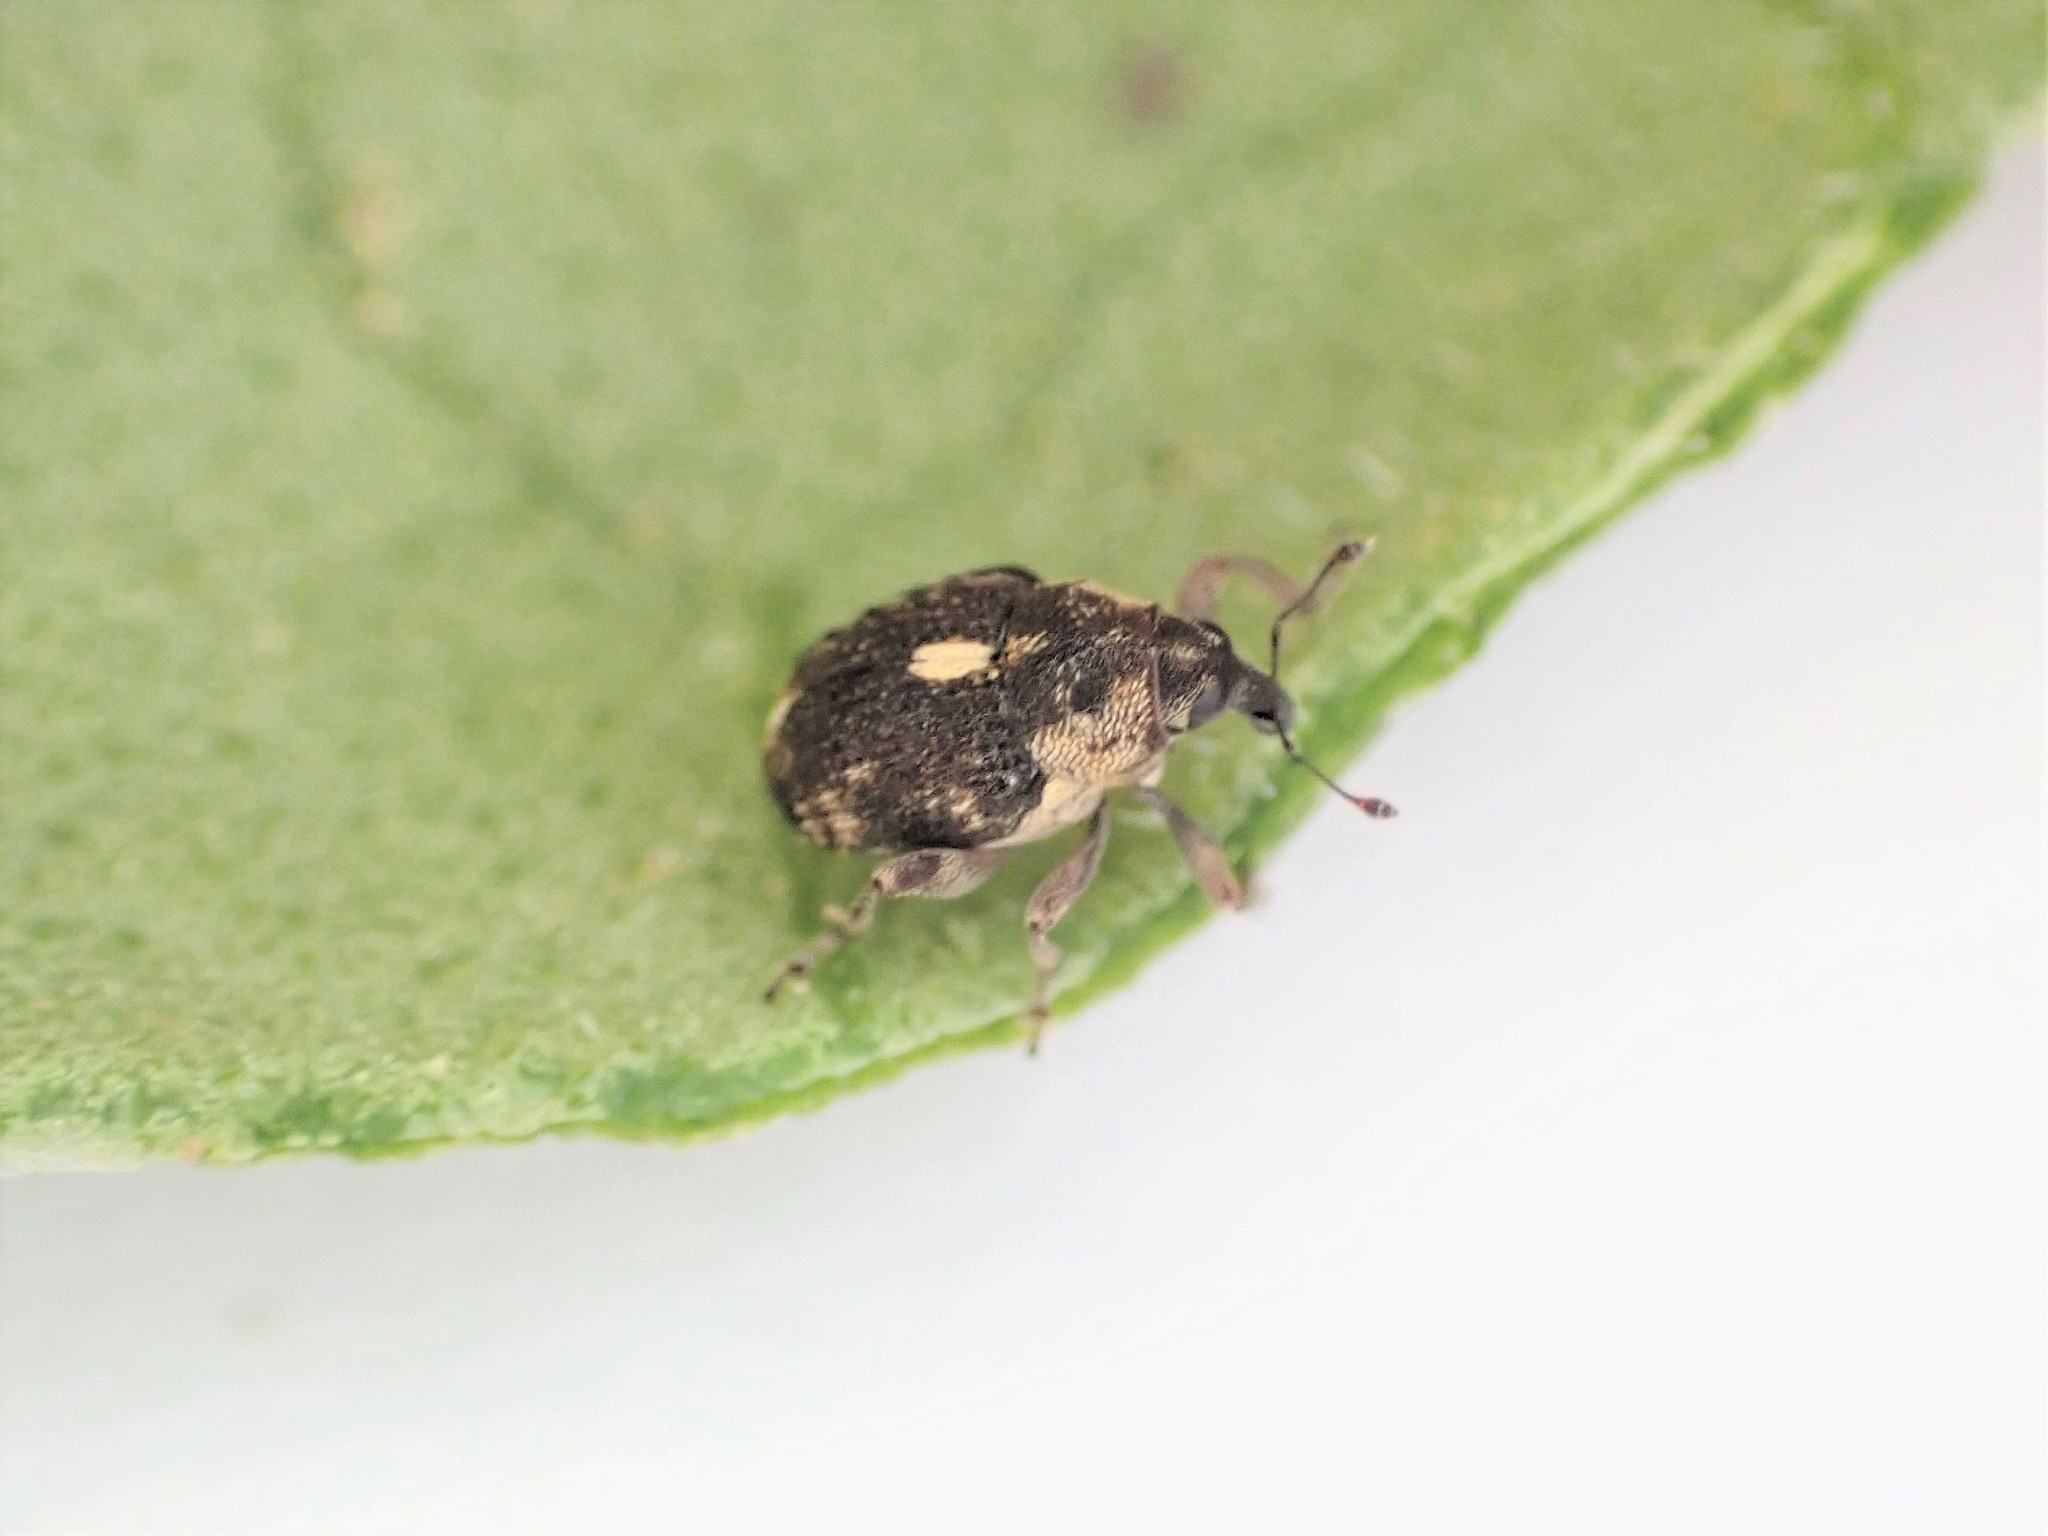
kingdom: Animalia
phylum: Arthropoda
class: Insecta
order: Coleoptera
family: Curculionidae
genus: Rhinoncus
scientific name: Rhinoncus australis
